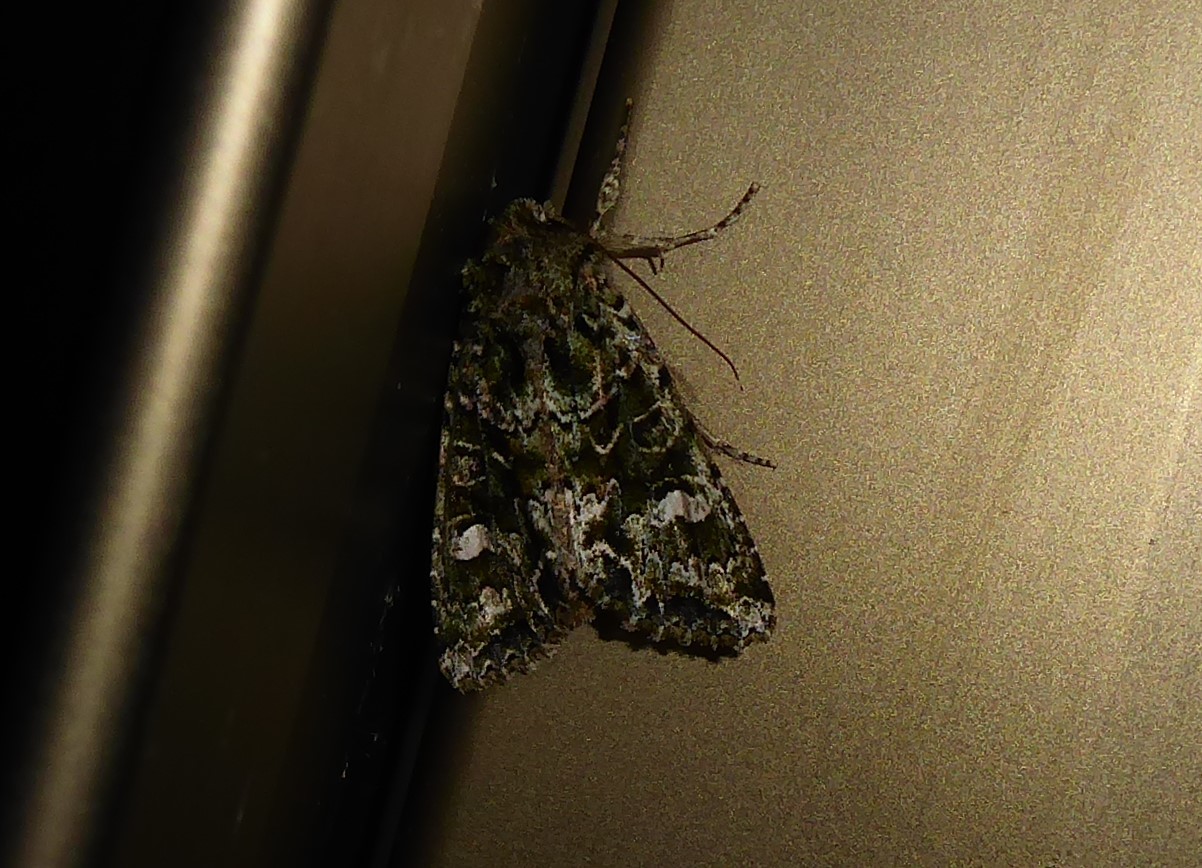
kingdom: Animalia
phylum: Arthropoda
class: Insecta
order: Lepidoptera
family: Noctuidae
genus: Ichneutica
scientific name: Ichneutica
